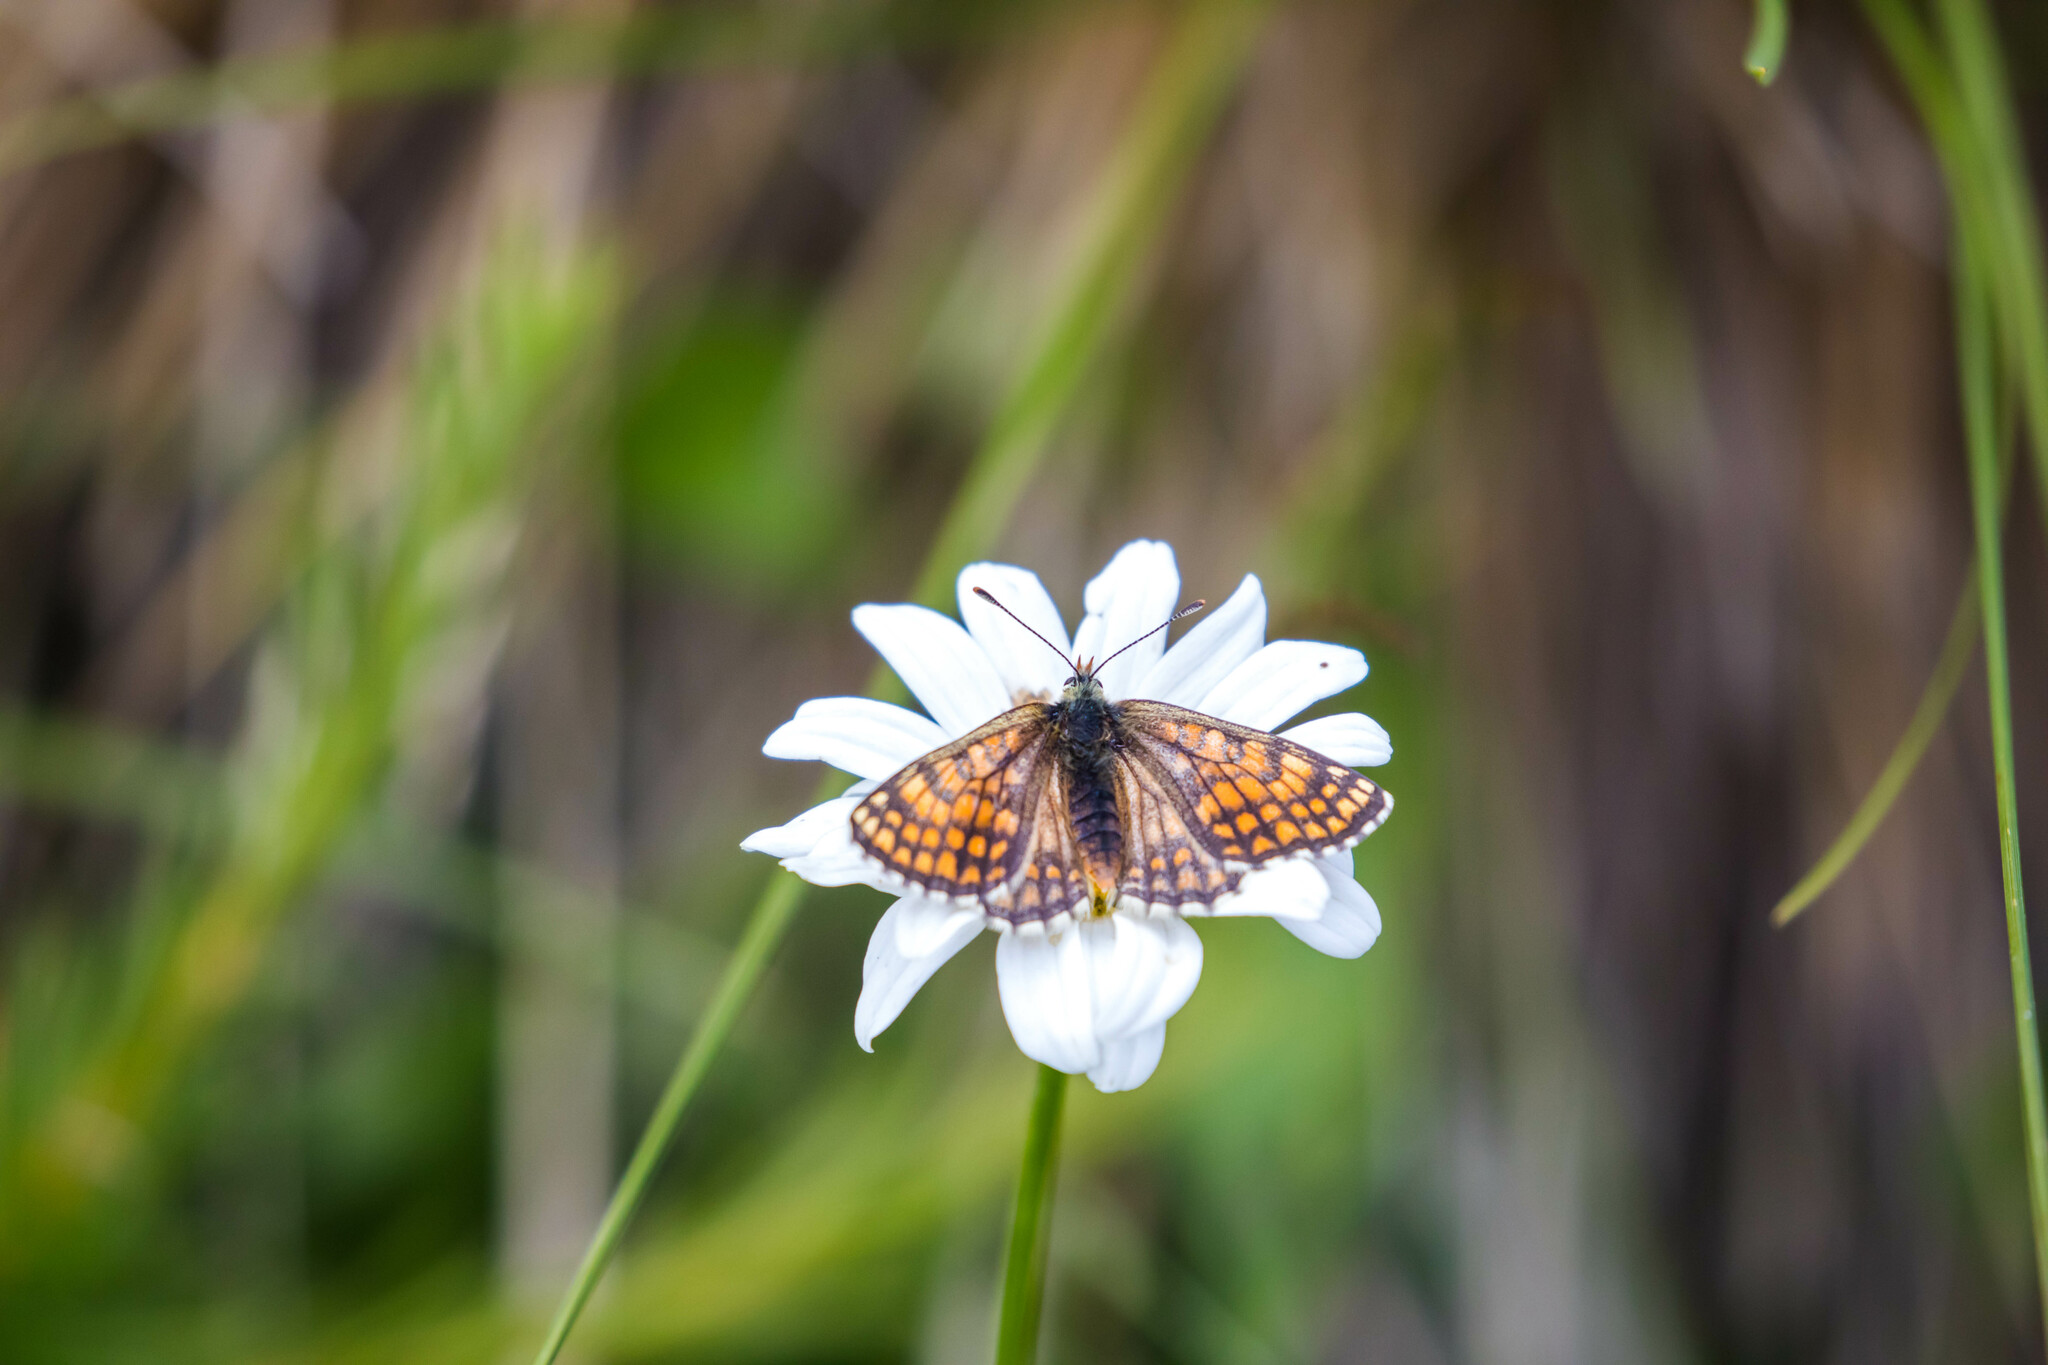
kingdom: Animalia
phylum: Arthropoda
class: Insecta
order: Lepidoptera
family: Nymphalidae
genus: Melitaea
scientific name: Melitaea varia
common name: Grisons fritillary
